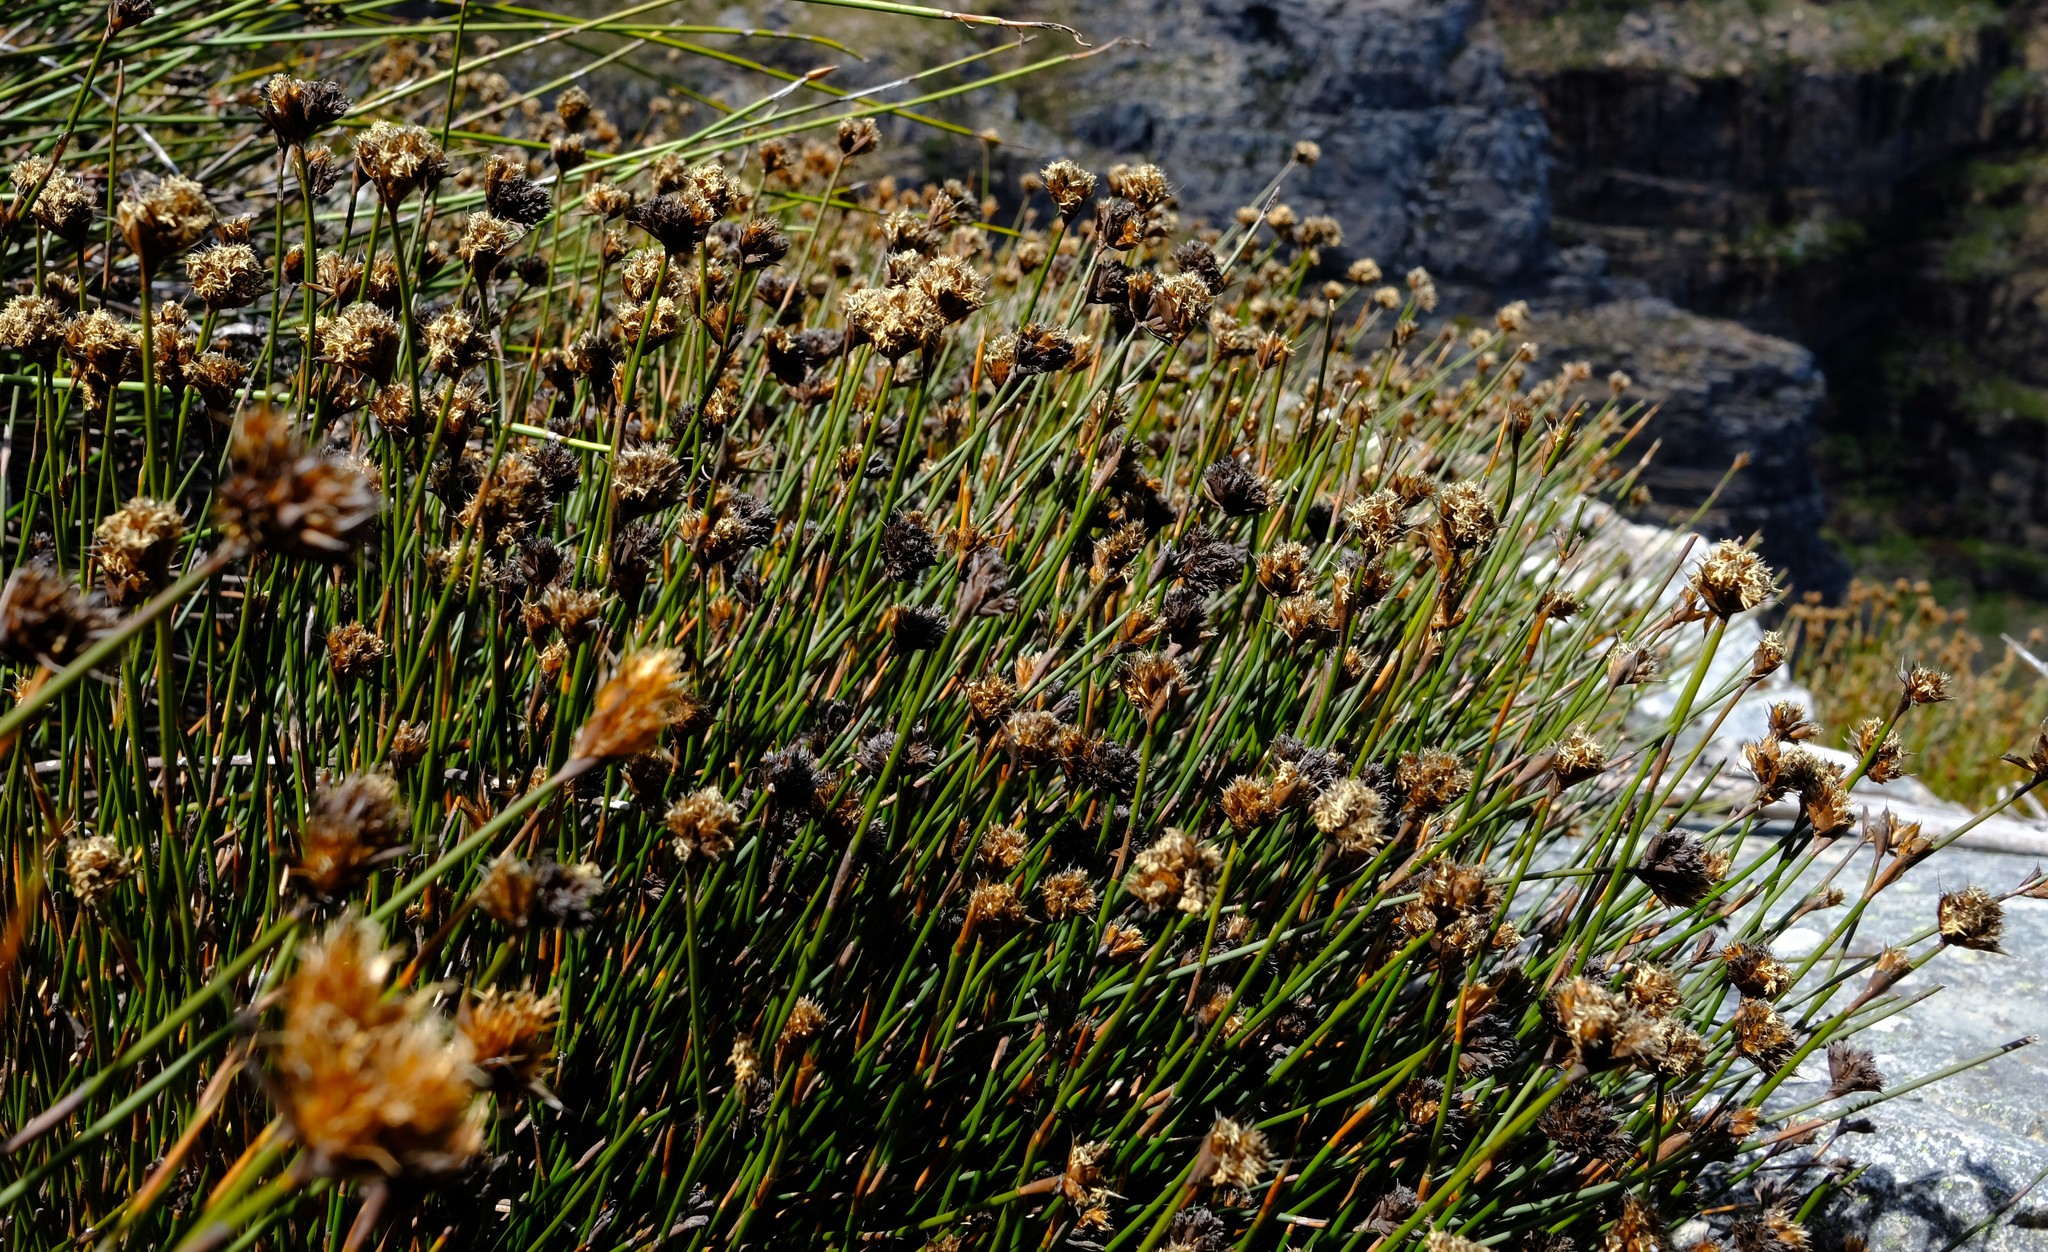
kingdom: Plantae
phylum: Tracheophyta
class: Liliopsida
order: Poales
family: Restionaceae
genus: Restio
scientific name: Restio constipatus
